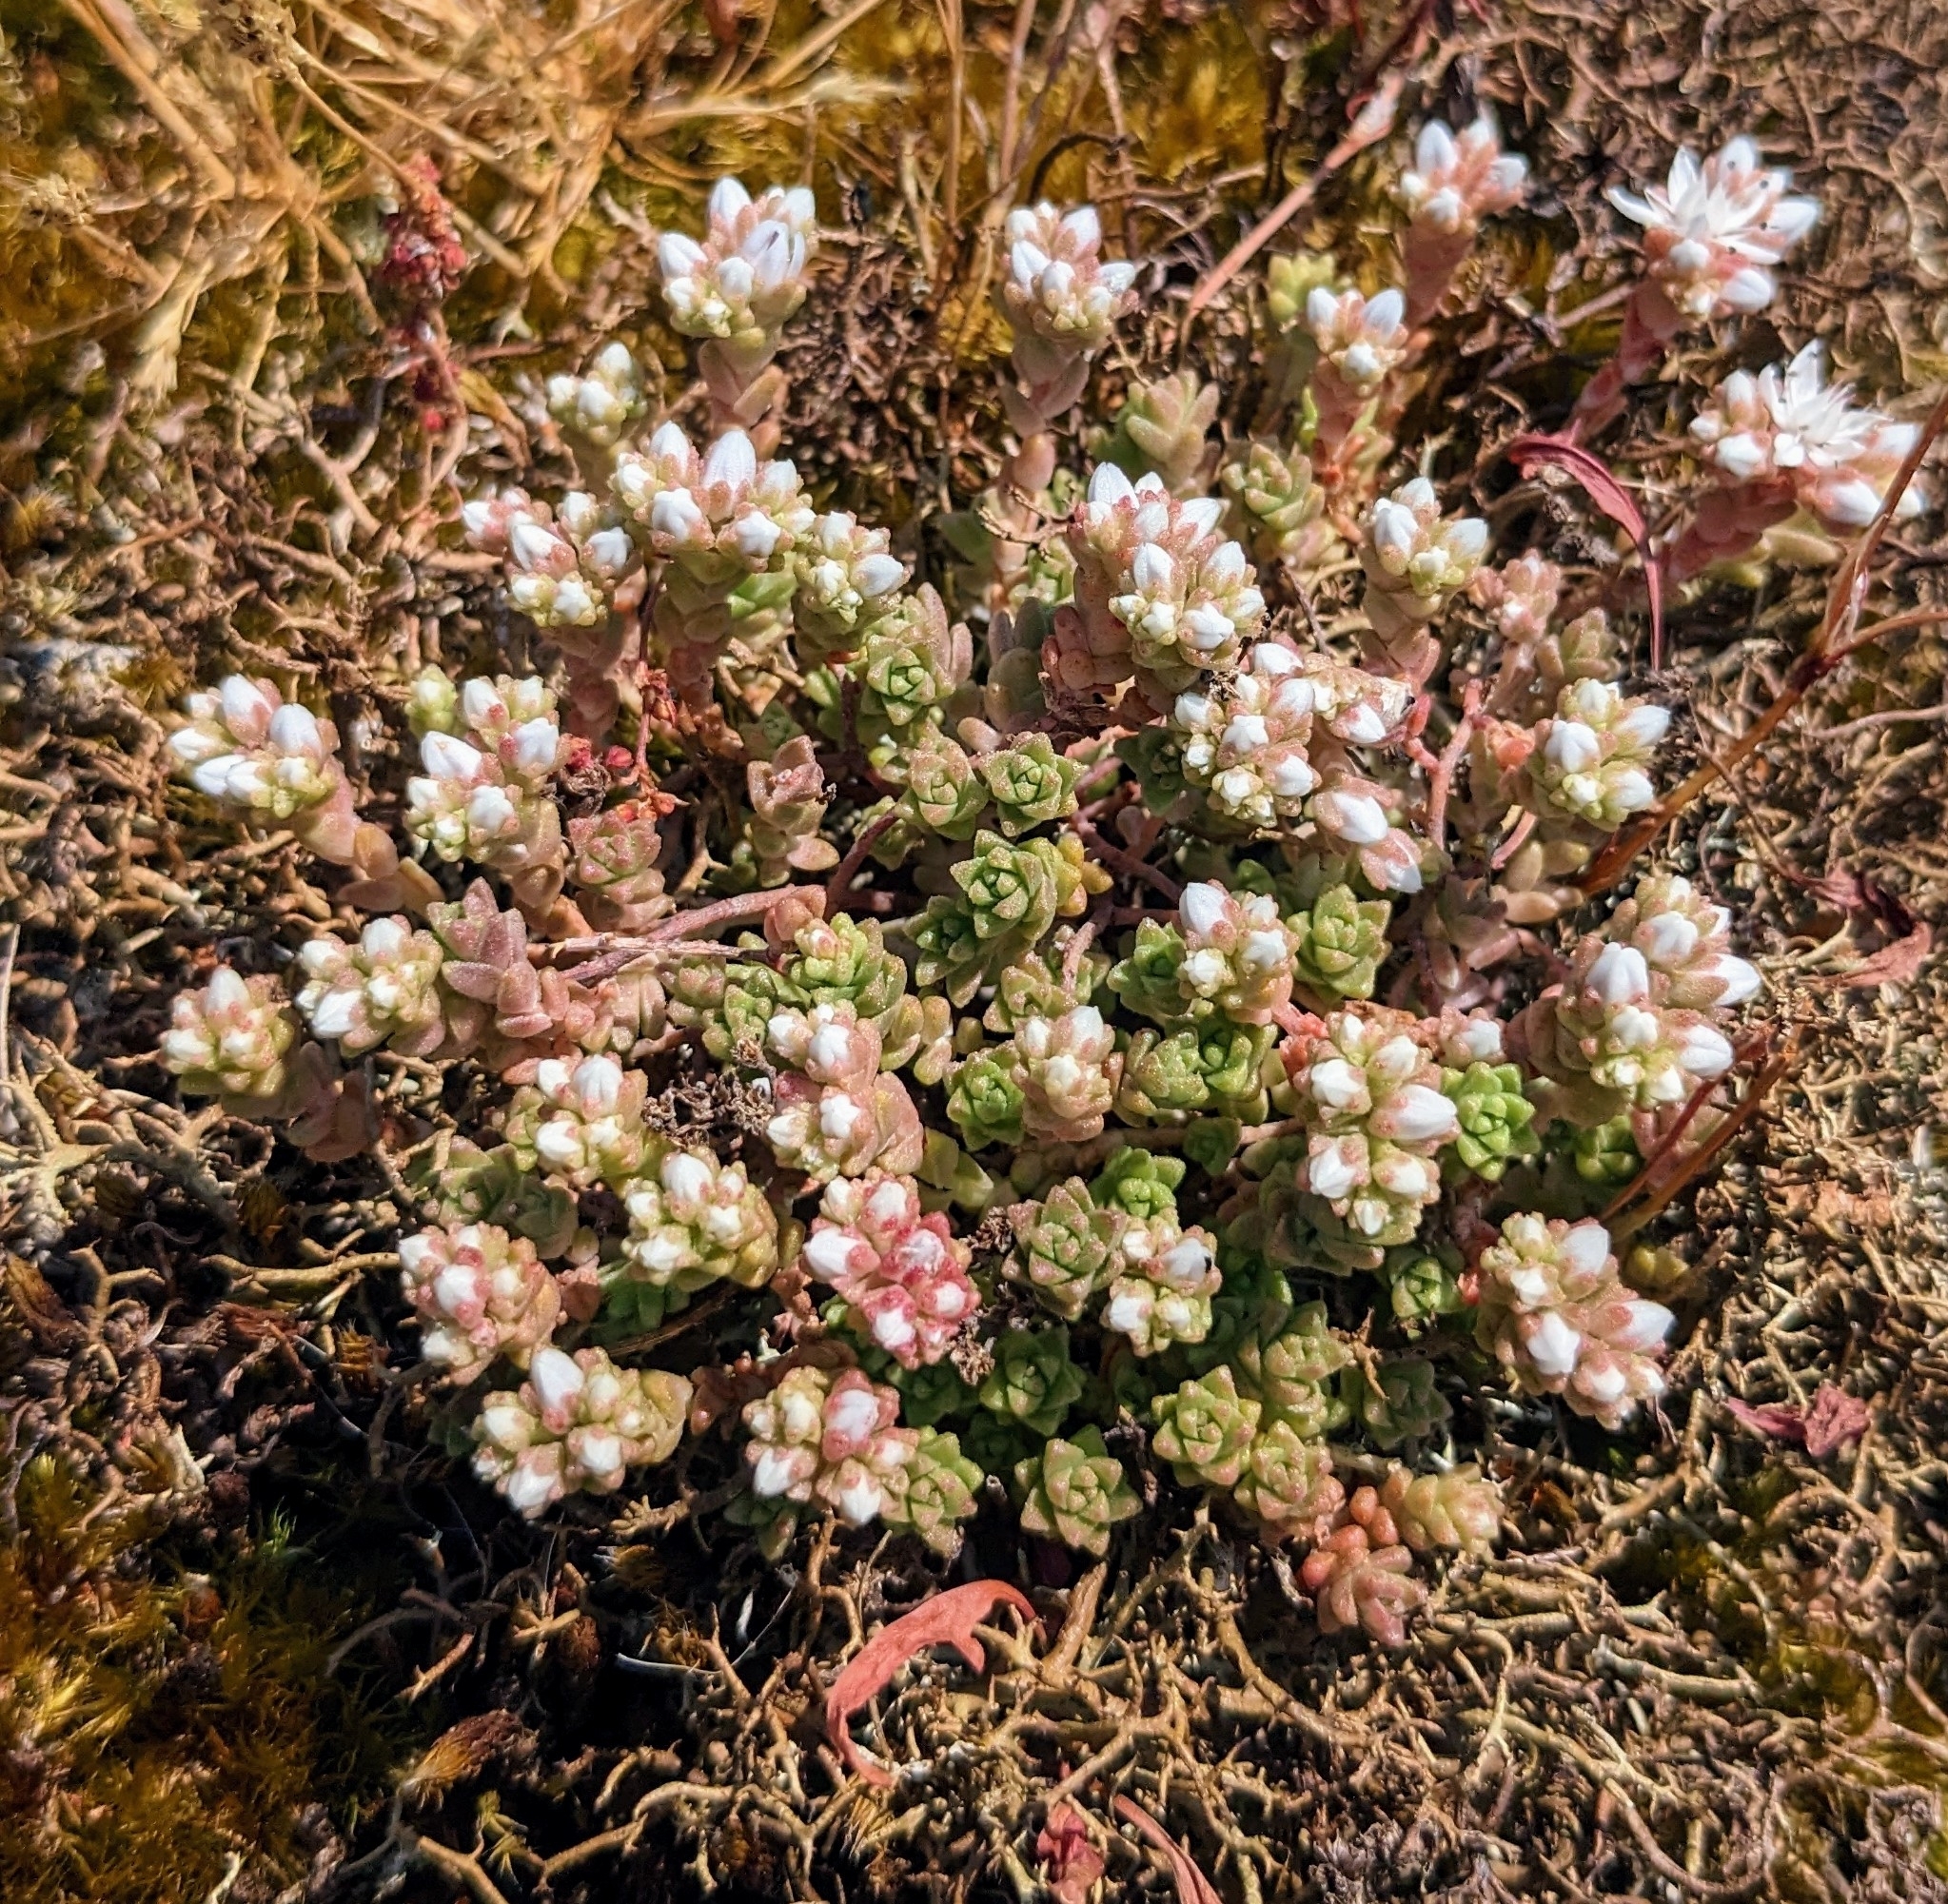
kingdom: Plantae
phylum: Tracheophyta
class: Magnoliopsida
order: Saxifragales
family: Crassulaceae
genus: Sedum
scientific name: Sedum anglicum
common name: English stonecrop
